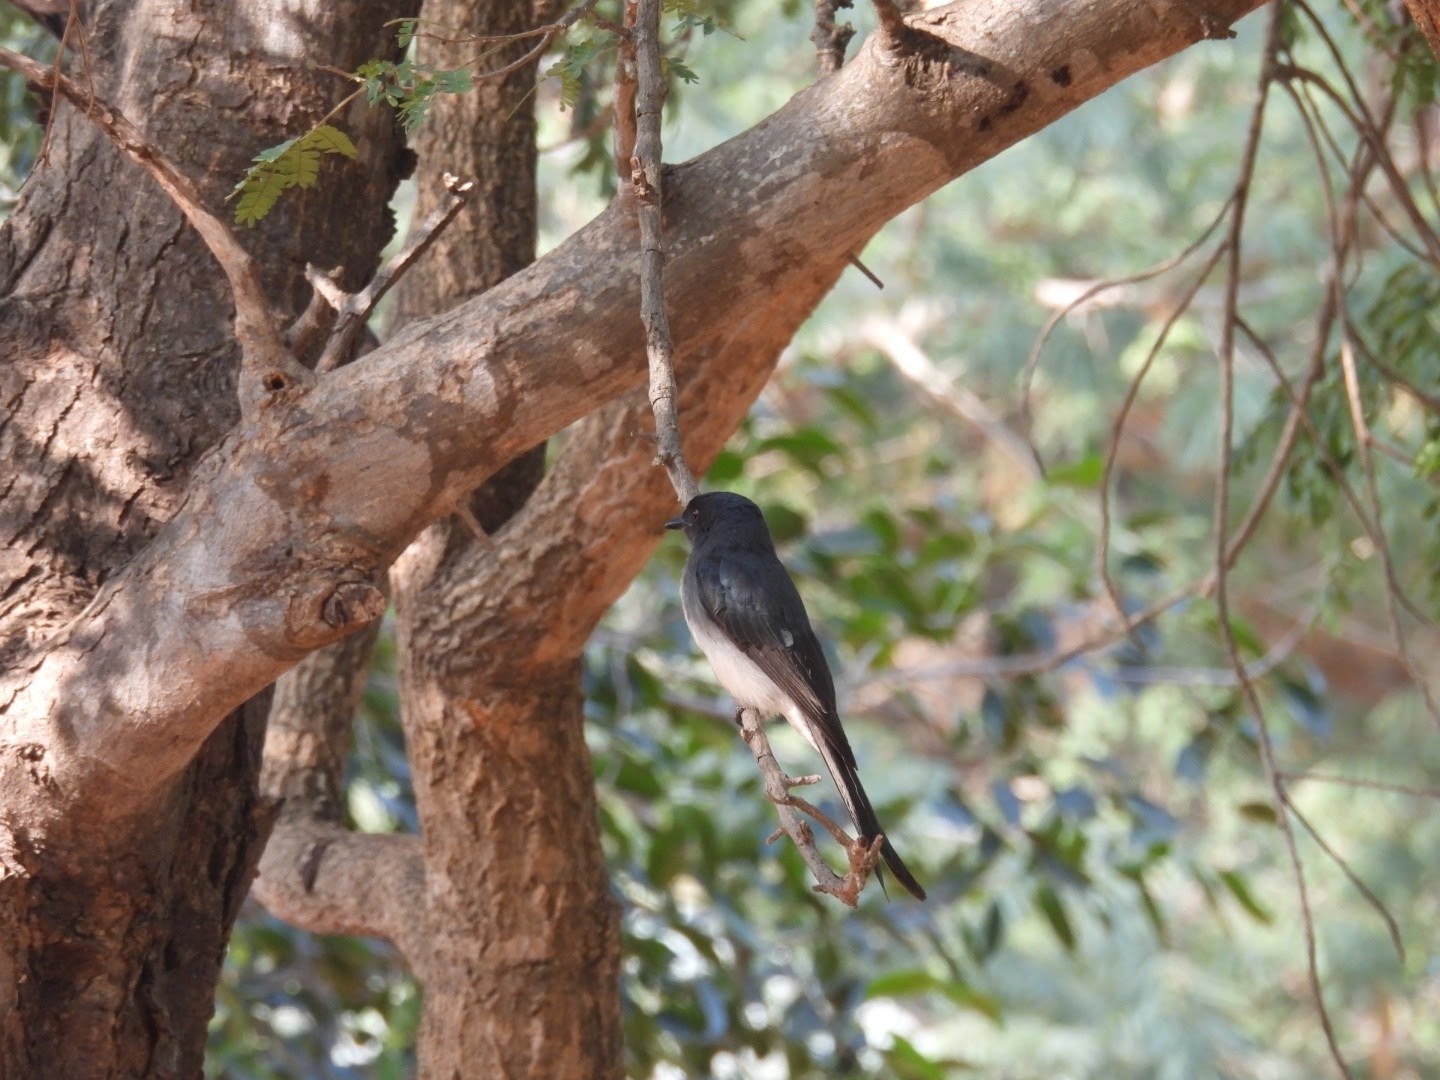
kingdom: Animalia
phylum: Chordata
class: Aves
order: Passeriformes
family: Dicruridae
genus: Dicrurus
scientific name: Dicrurus caerulescens
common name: White-bellied drongo
